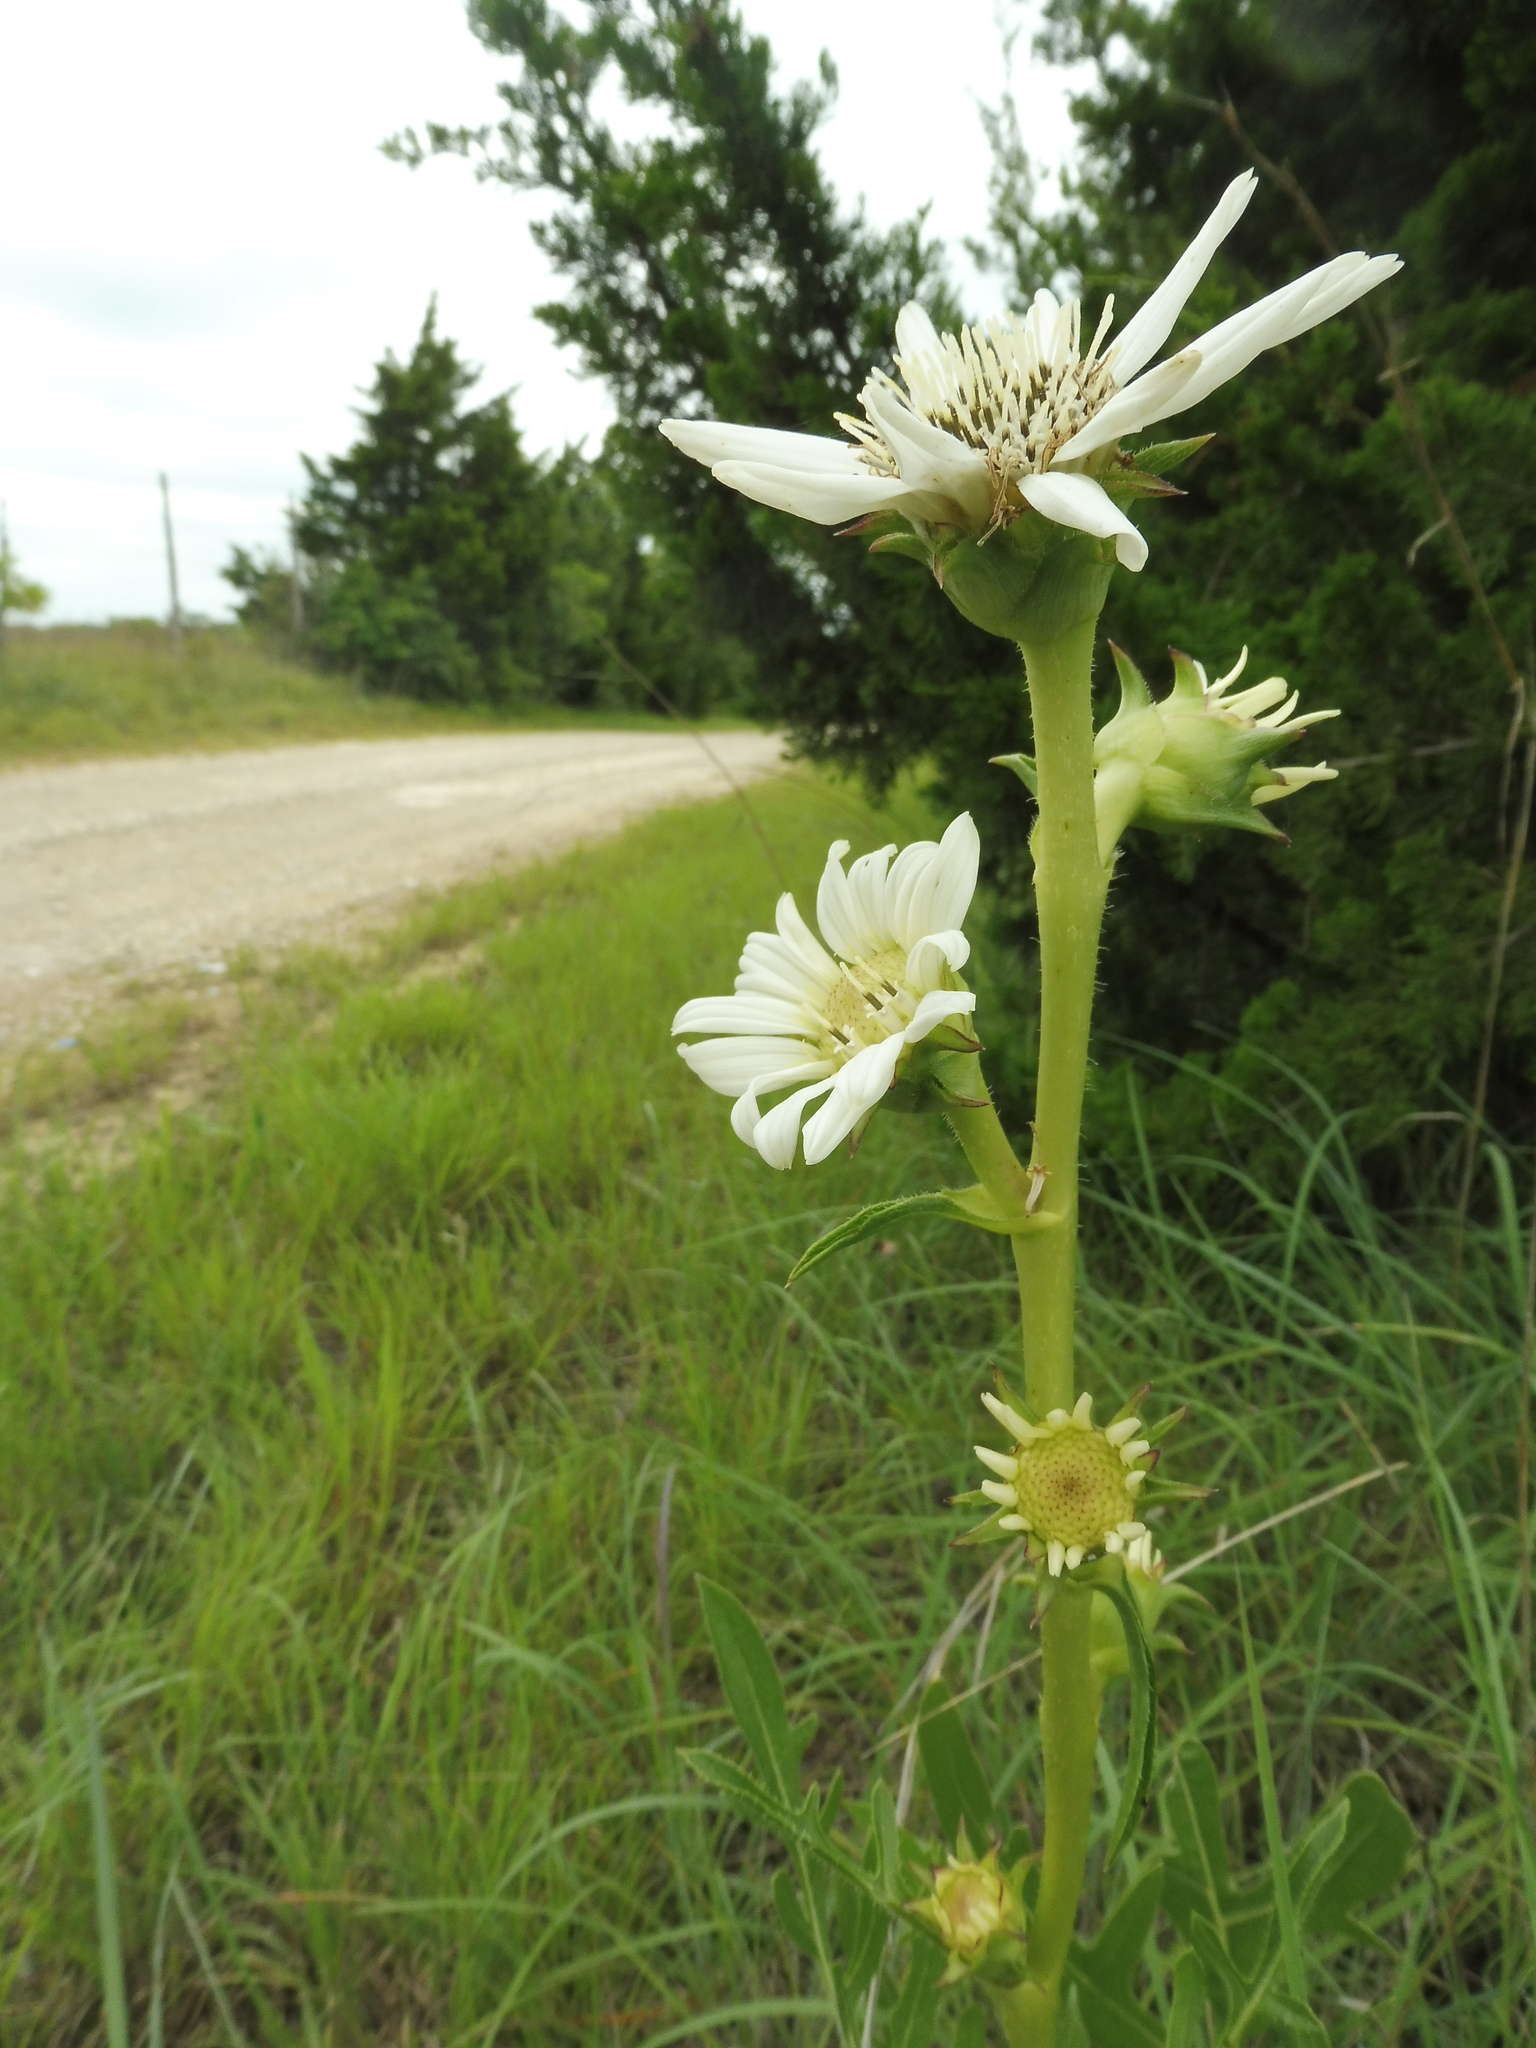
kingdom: Plantae
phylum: Tracheophyta
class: Magnoliopsida
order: Asterales
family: Asteraceae
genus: Silphium
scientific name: Silphium albiflorum
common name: White rosinweed
